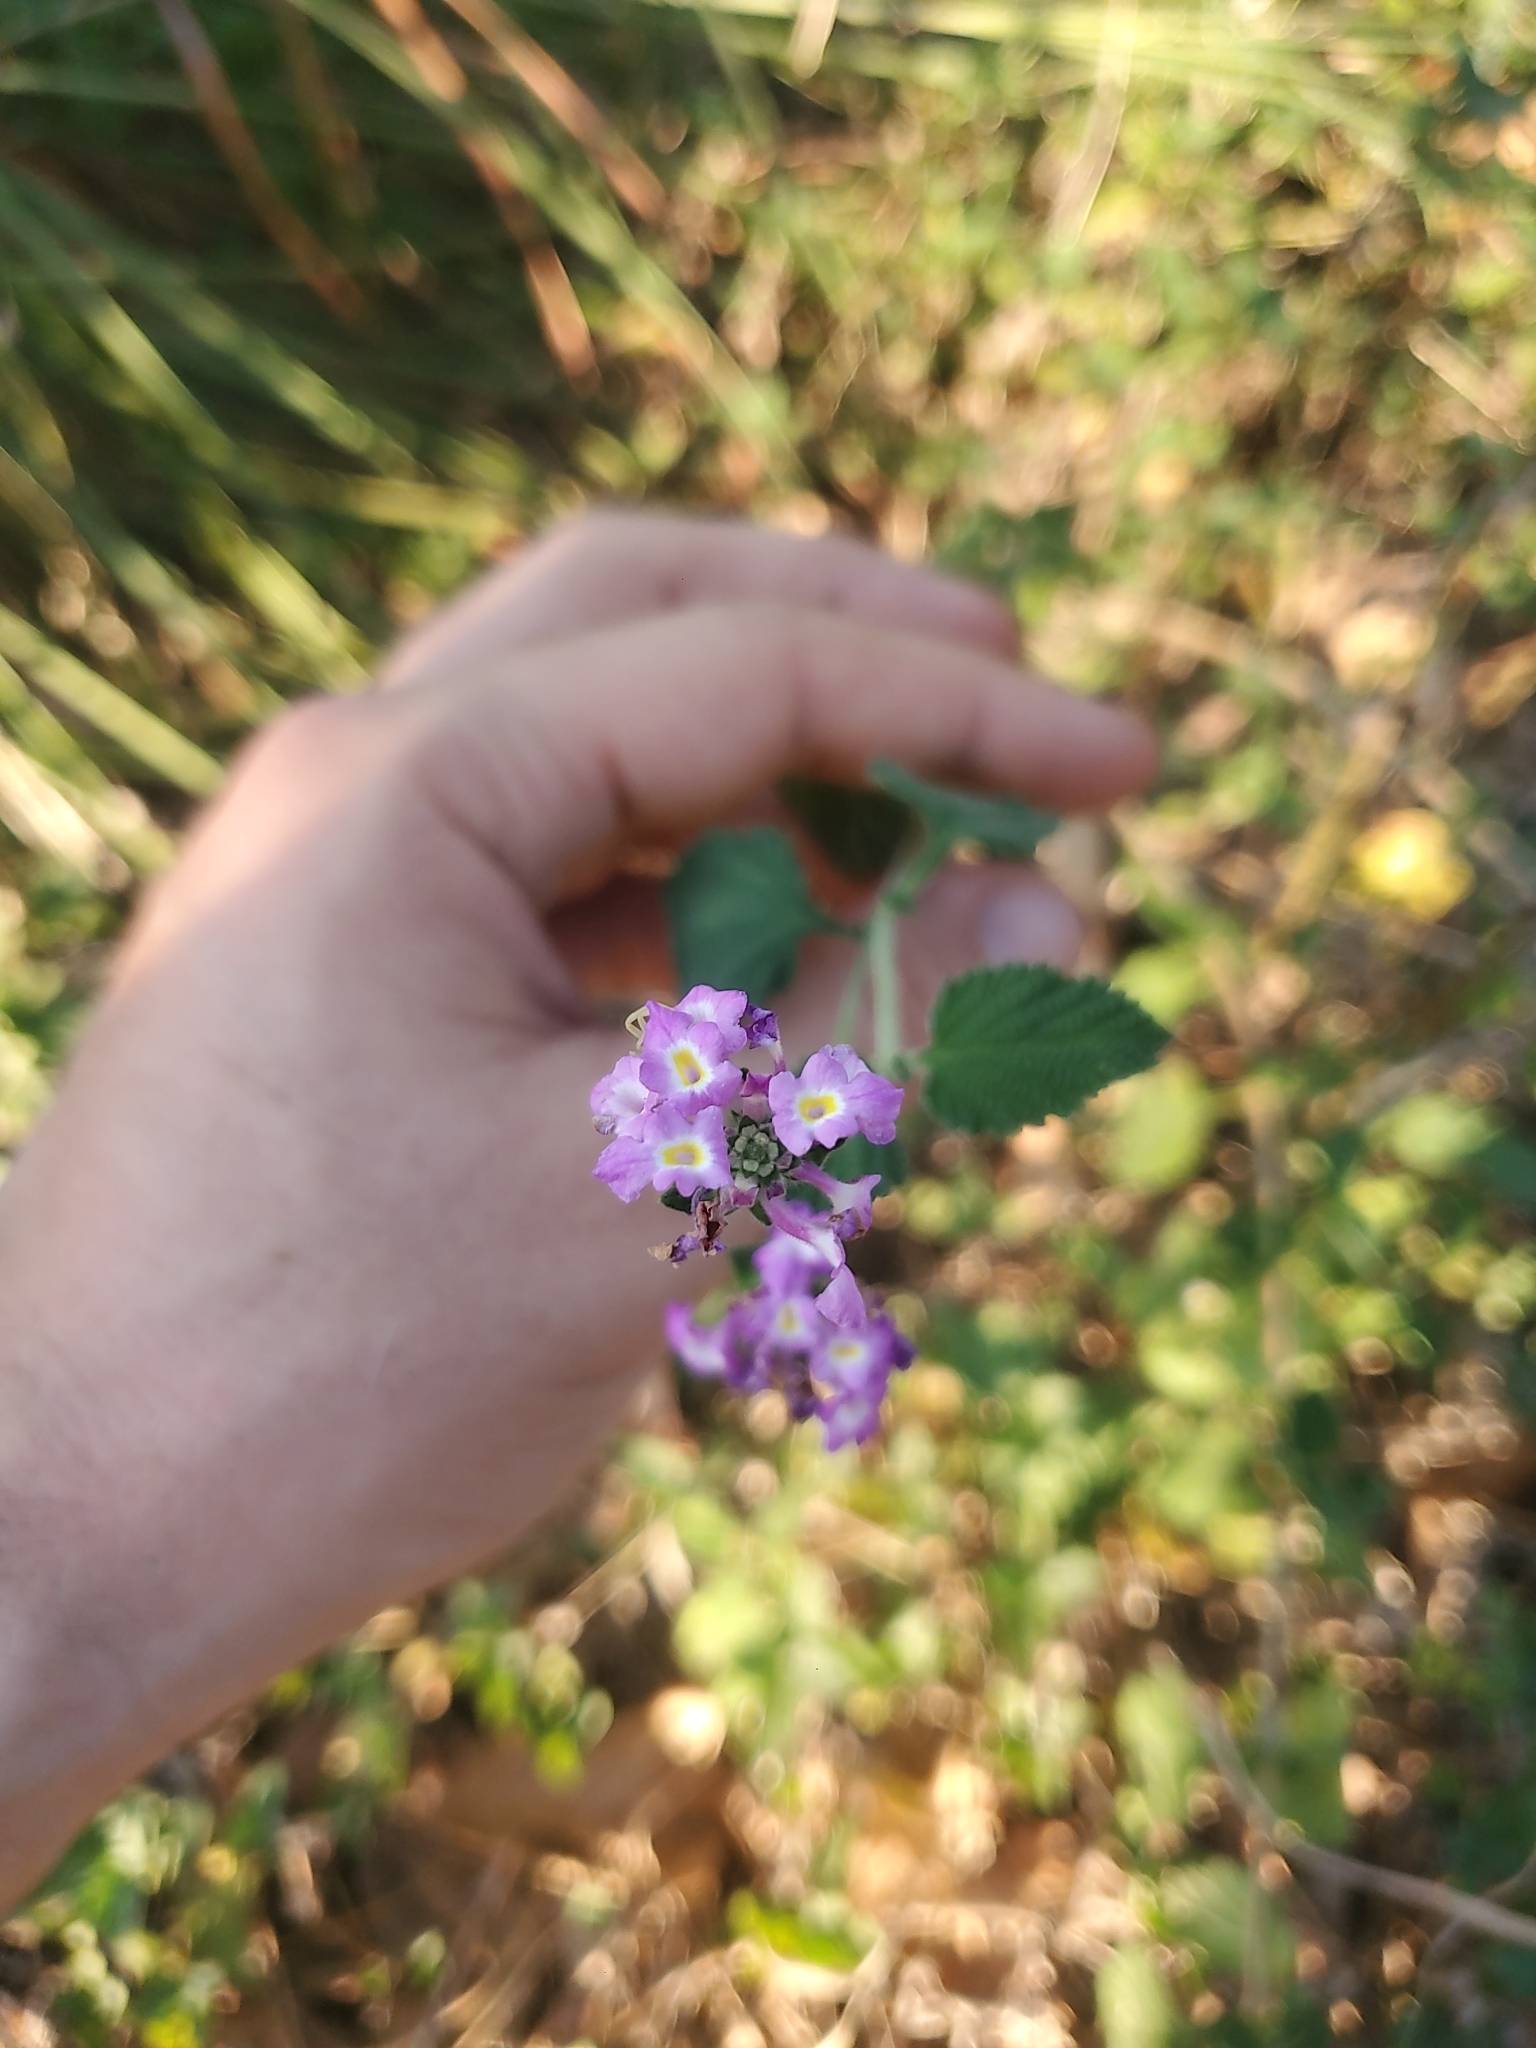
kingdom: Plantae
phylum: Tracheophyta
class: Magnoliopsida
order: Lamiales
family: Verbenaceae
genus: Lantana
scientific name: Lantana montevidensis
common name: Trailing shrubverbena
